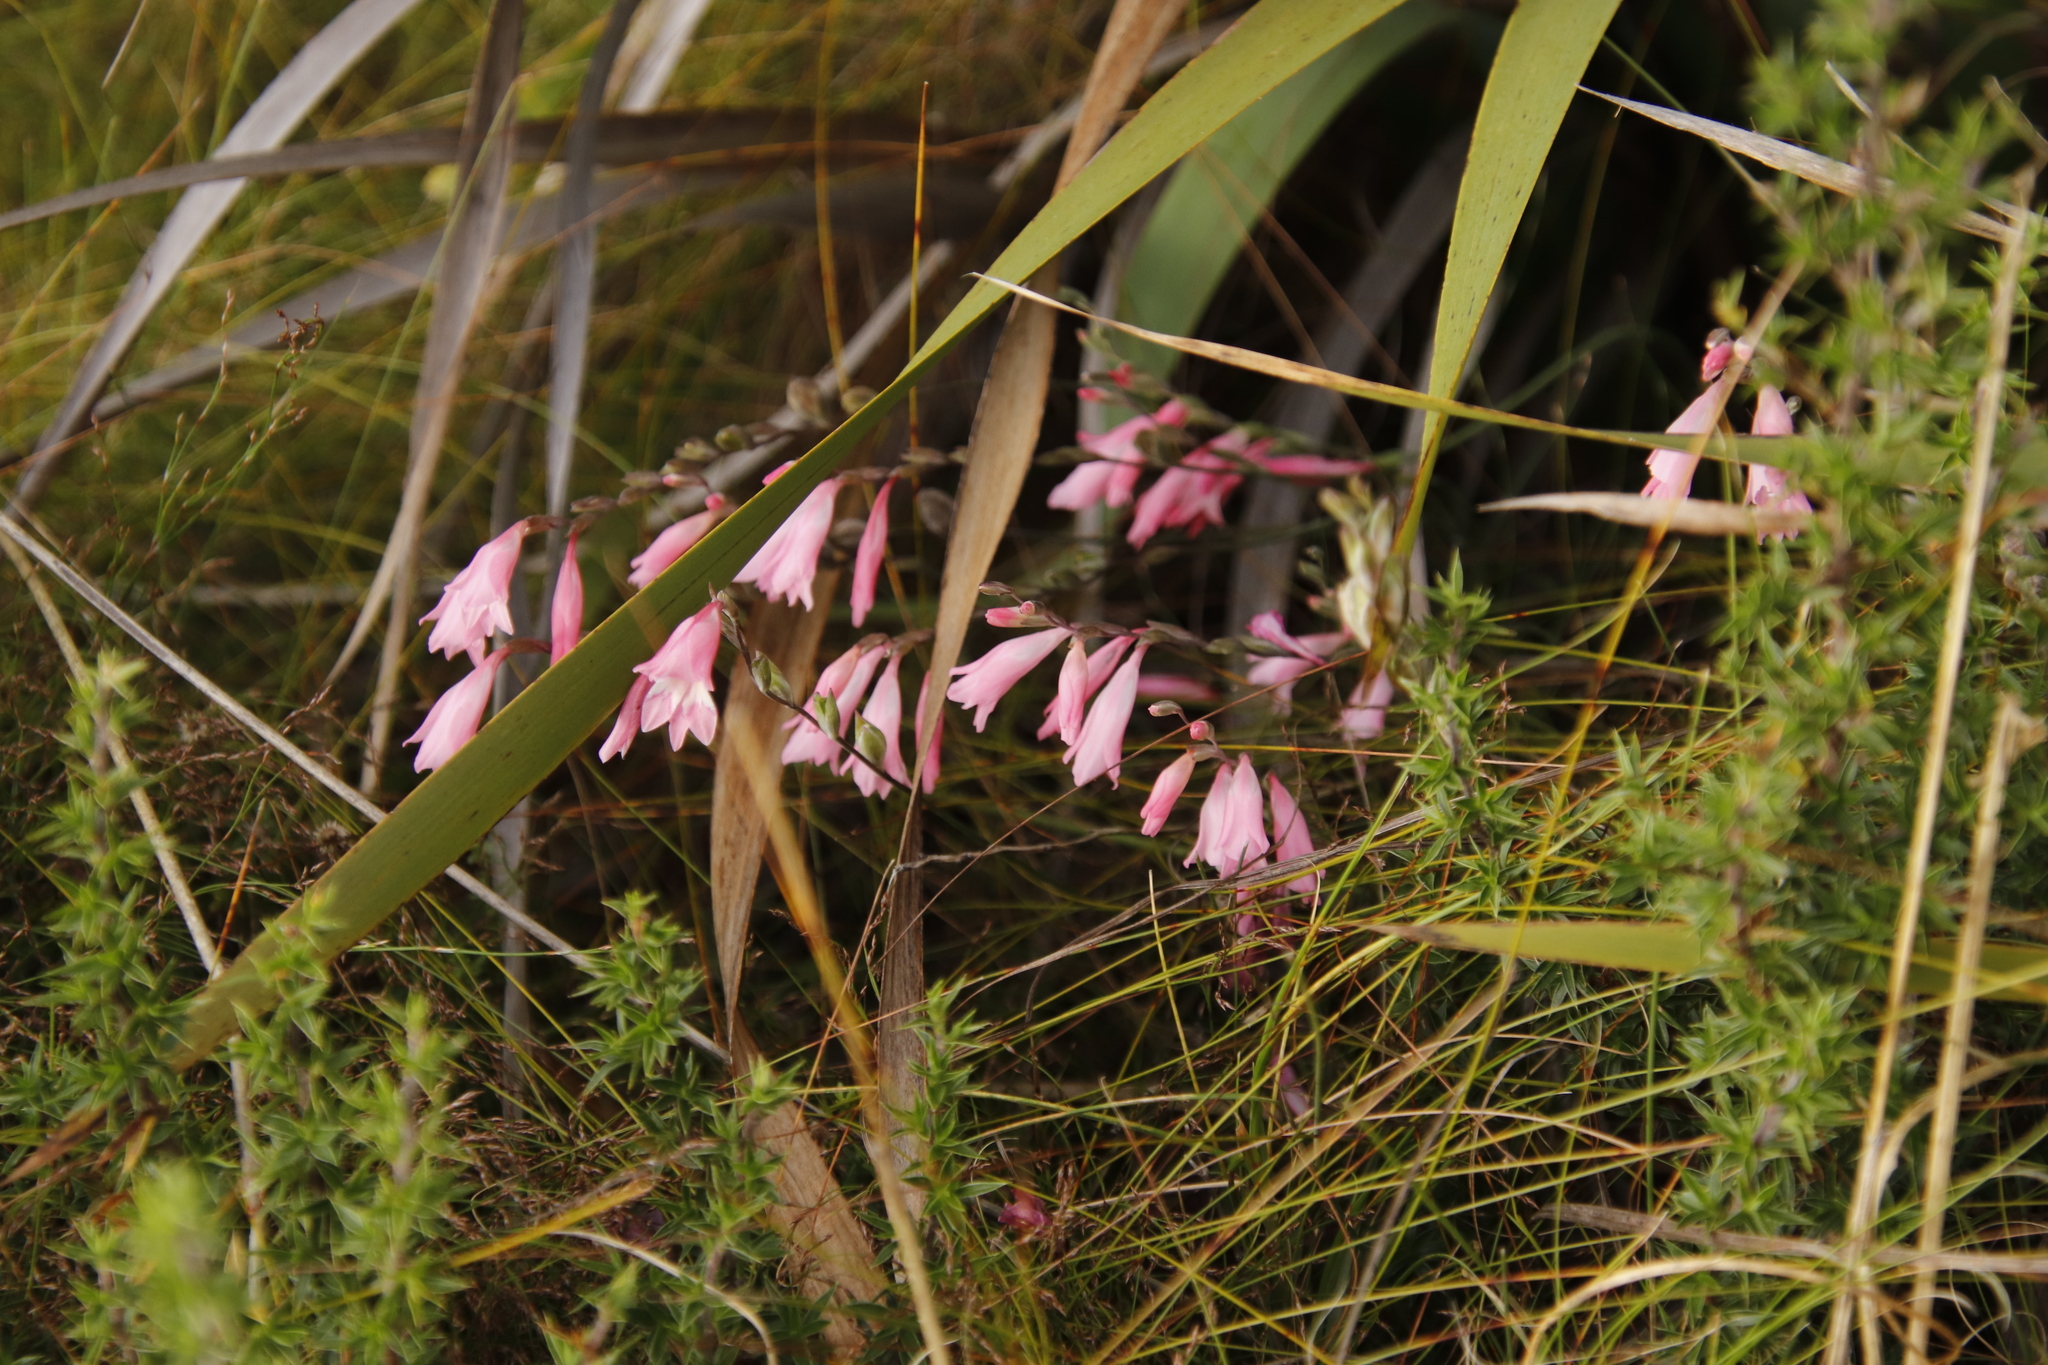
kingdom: Plantae
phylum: Tracheophyta
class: Liliopsida
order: Asparagales
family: Iridaceae
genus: Gladiolus
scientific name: Gladiolus brevifolius
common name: March pypie
